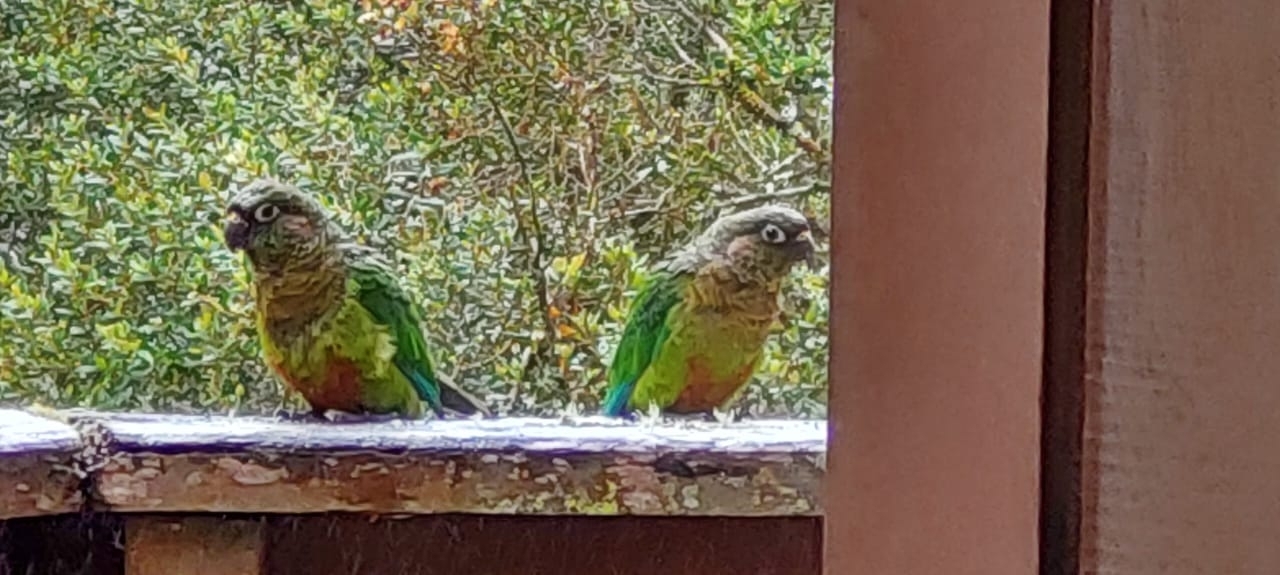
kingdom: Animalia
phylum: Chordata
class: Aves
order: Psittaciformes
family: Psittacidae
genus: Pyrrhura
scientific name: Pyrrhura frontalis
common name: Maroon-bellied parakeet
